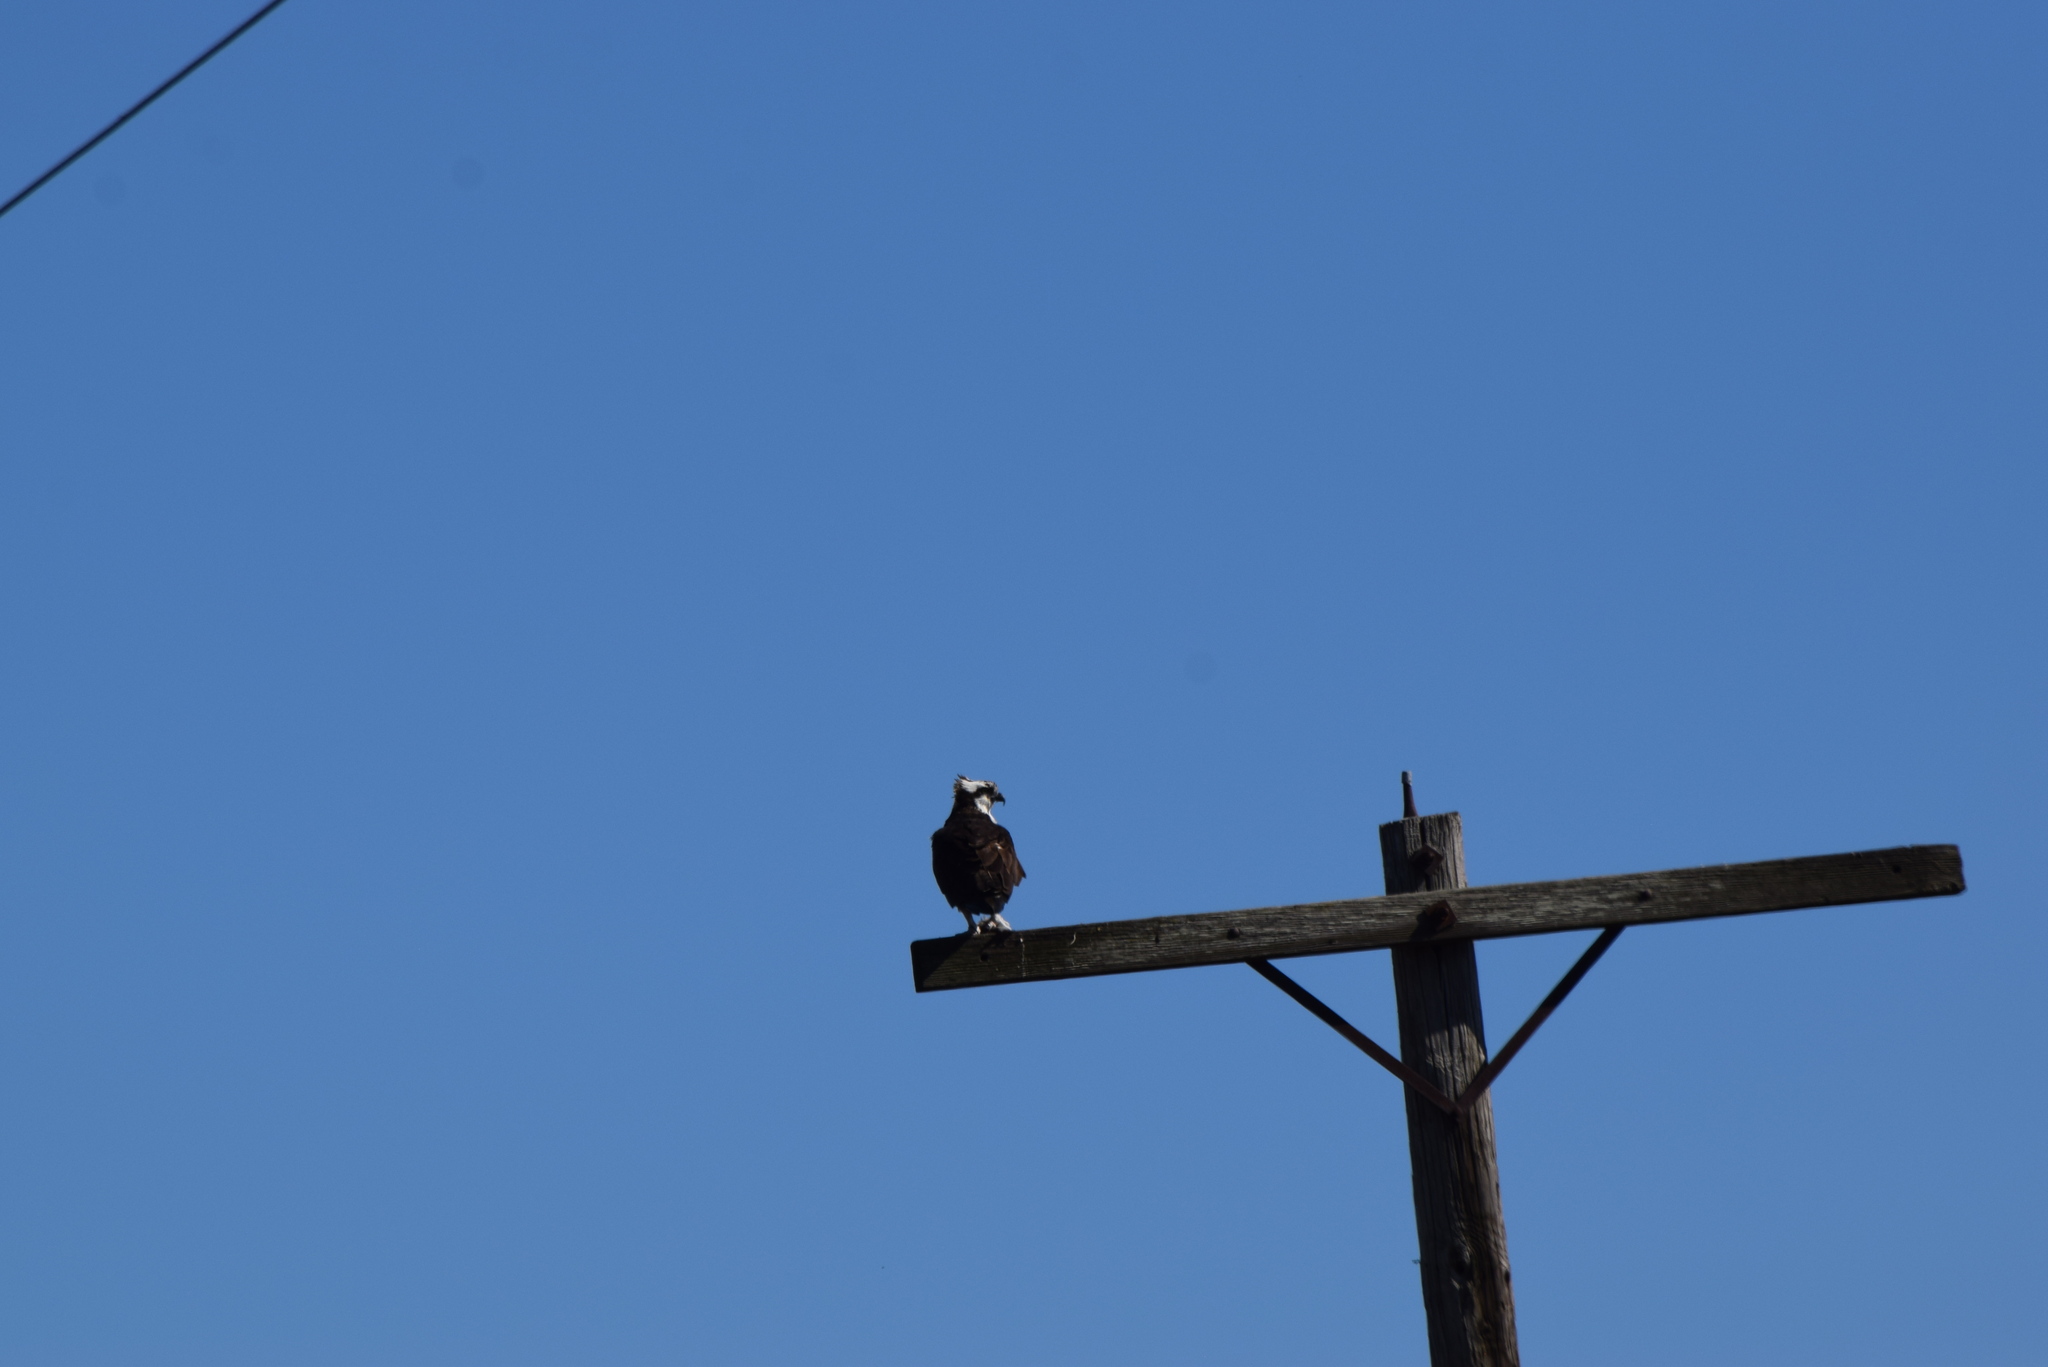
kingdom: Animalia
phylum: Chordata
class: Aves
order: Accipitriformes
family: Pandionidae
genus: Pandion
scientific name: Pandion haliaetus
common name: Osprey
